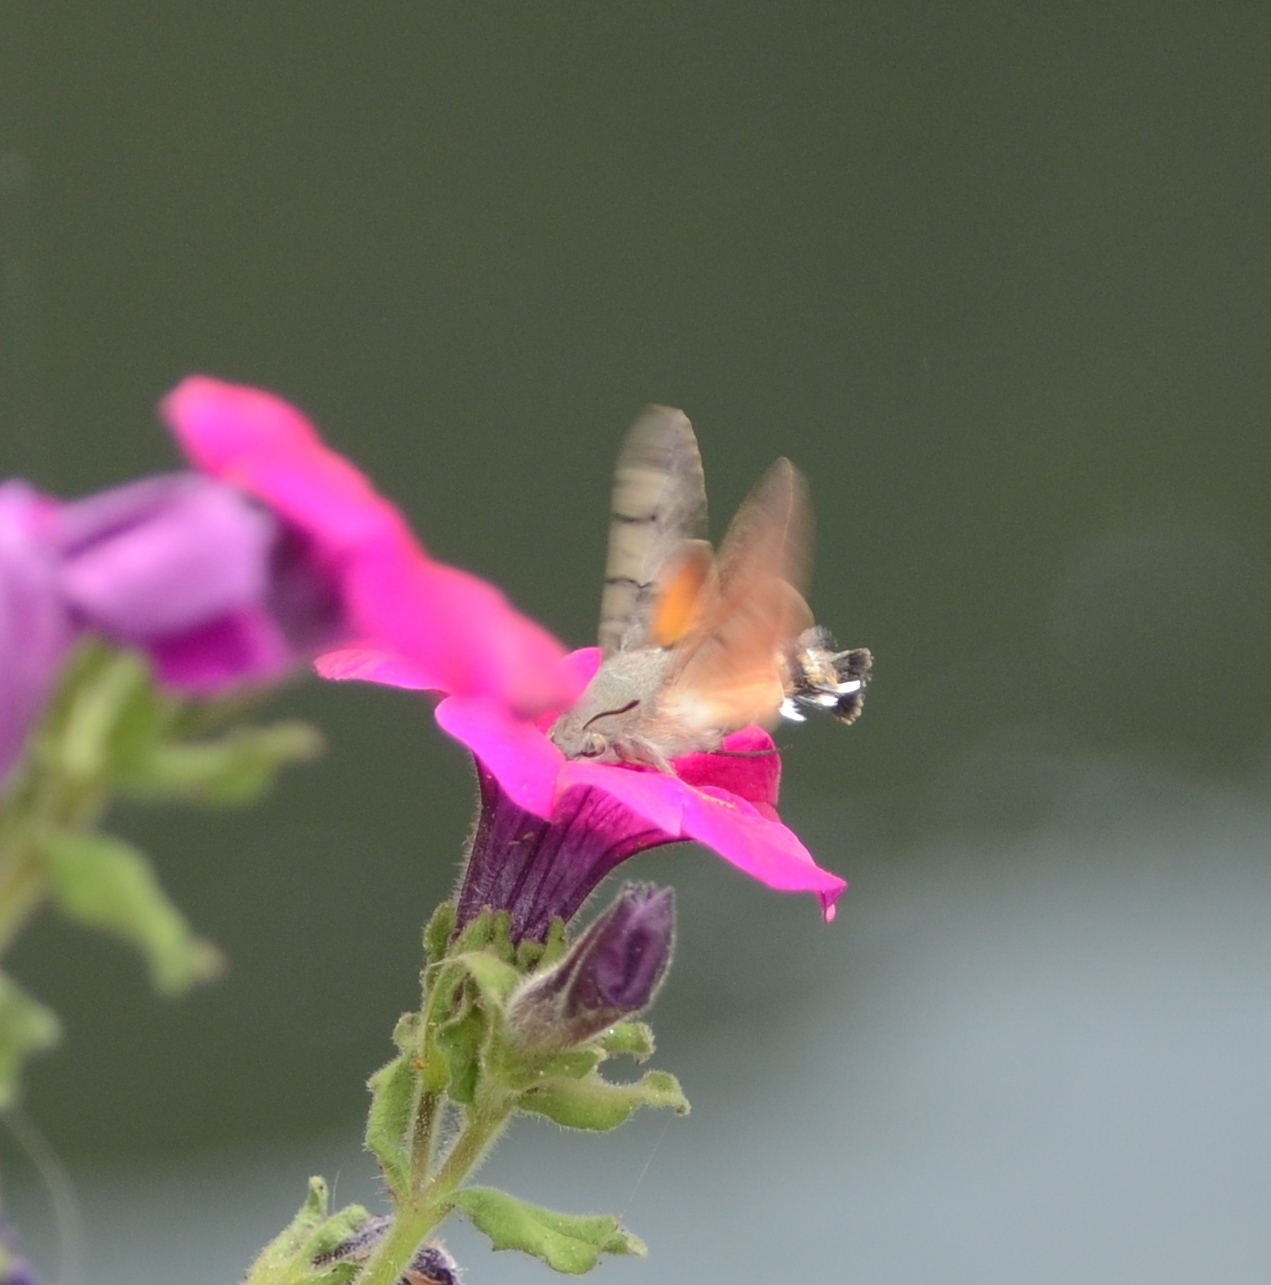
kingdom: Animalia
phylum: Arthropoda
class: Insecta
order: Lepidoptera
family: Sphingidae
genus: Macroglossum
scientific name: Macroglossum stellatarum
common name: Humming-bird hawk-moth
